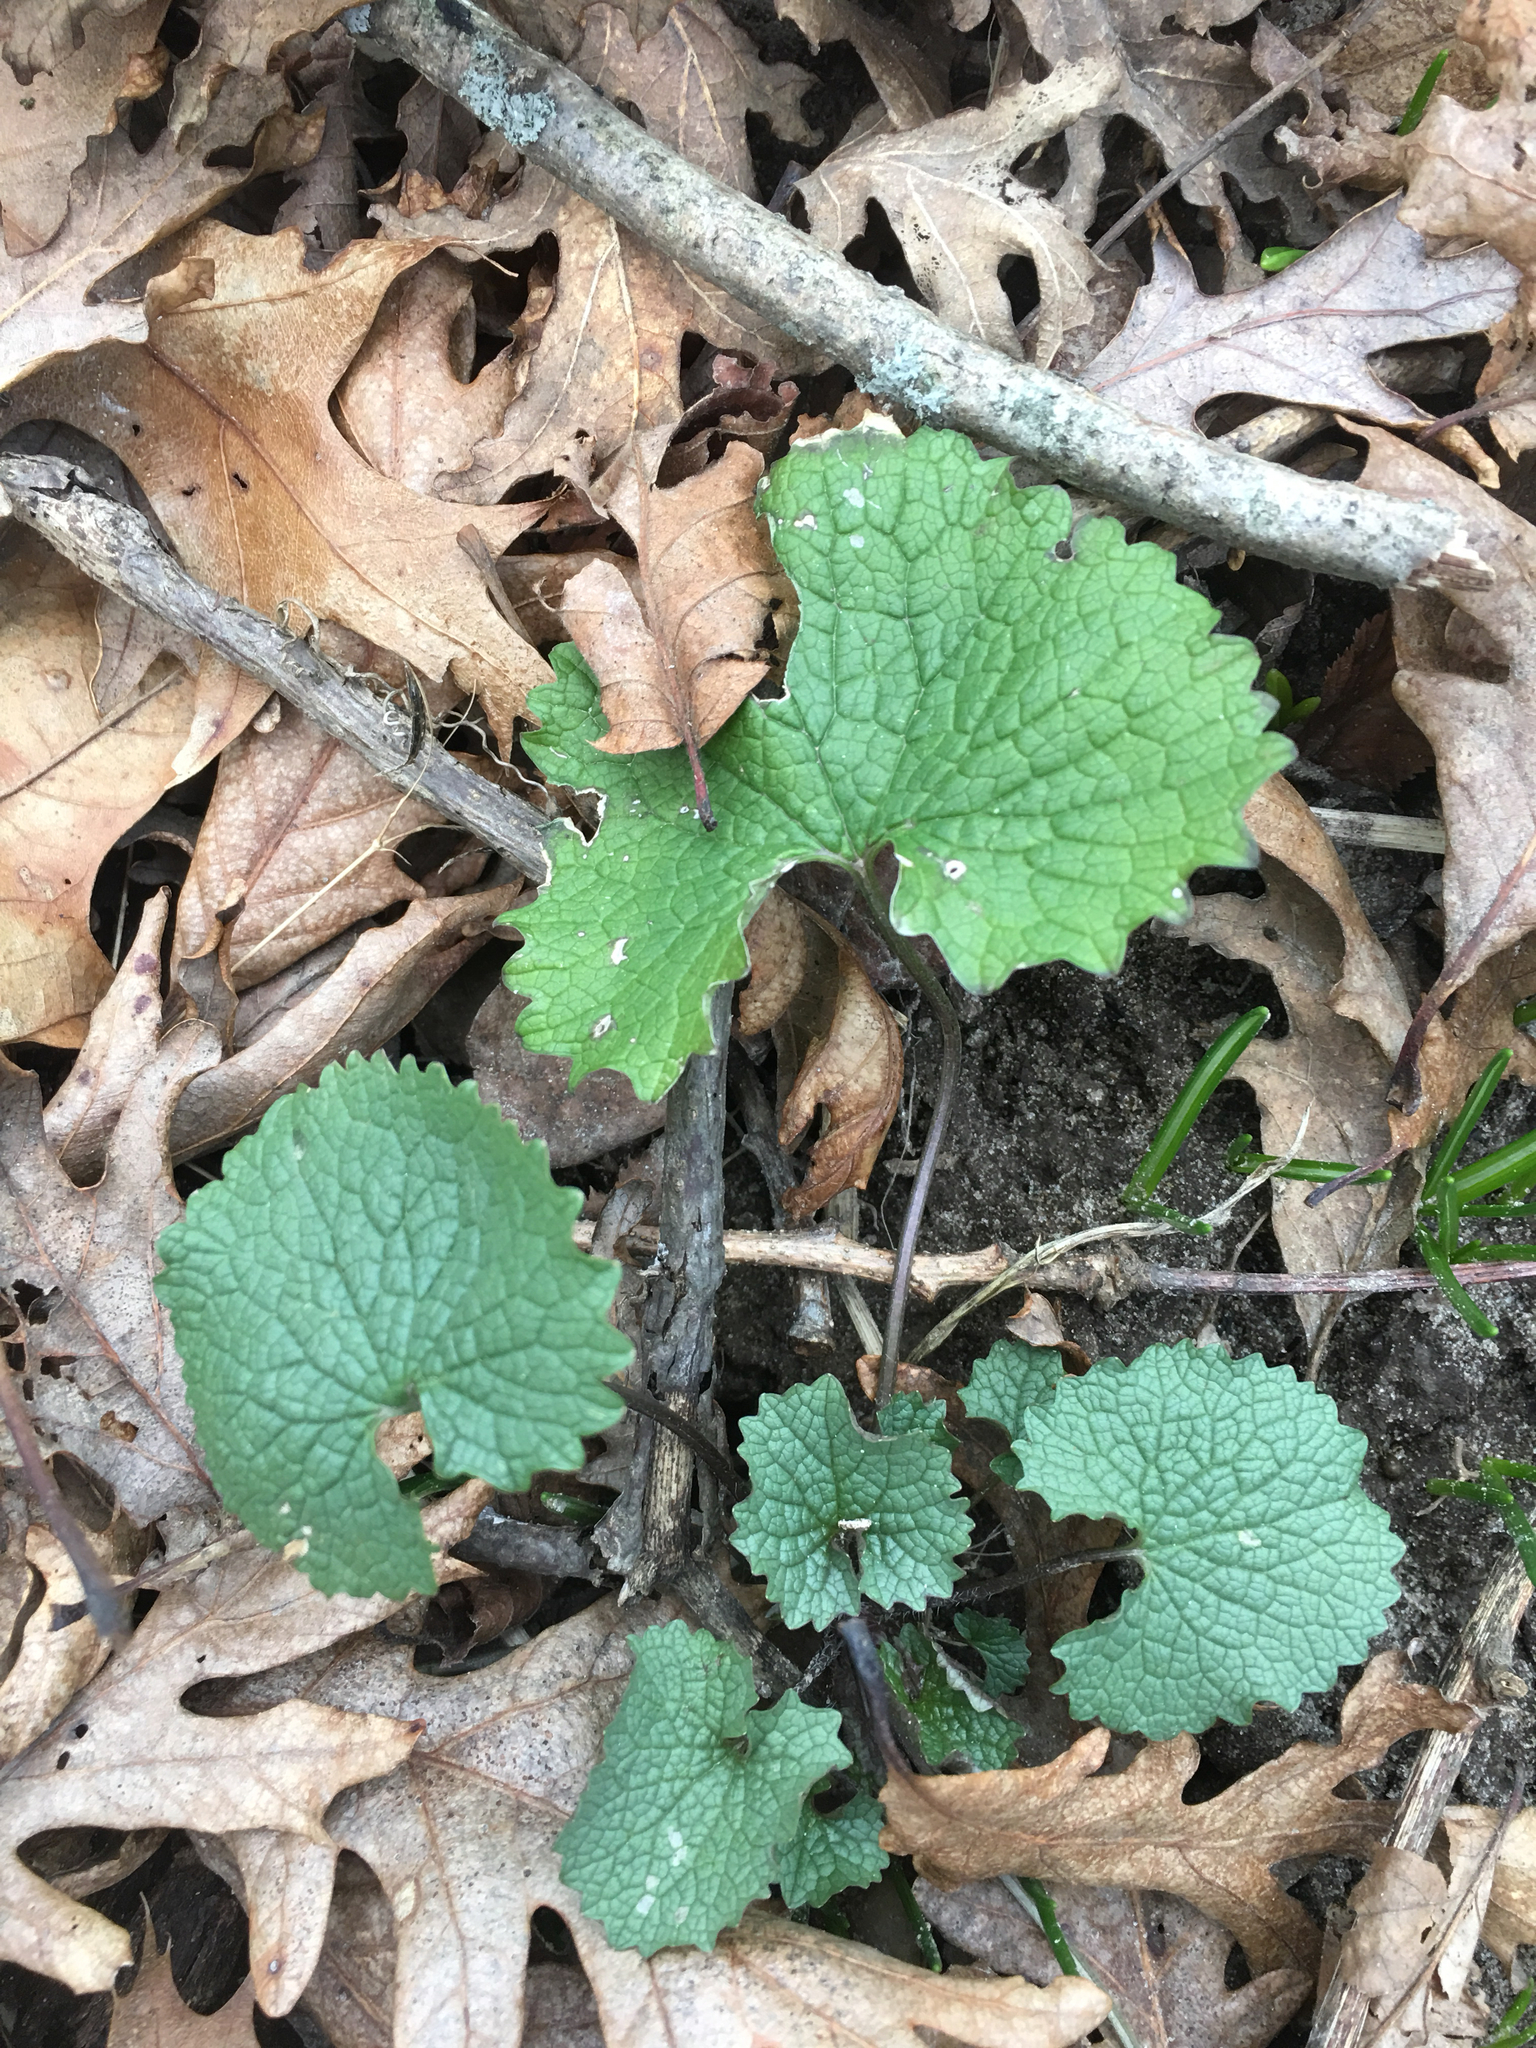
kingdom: Plantae
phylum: Tracheophyta
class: Magnoliopsida
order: Brassicales
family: Brassicaceae
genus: Alliaria
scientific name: Alliaria petiolata
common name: Garlic mustard
